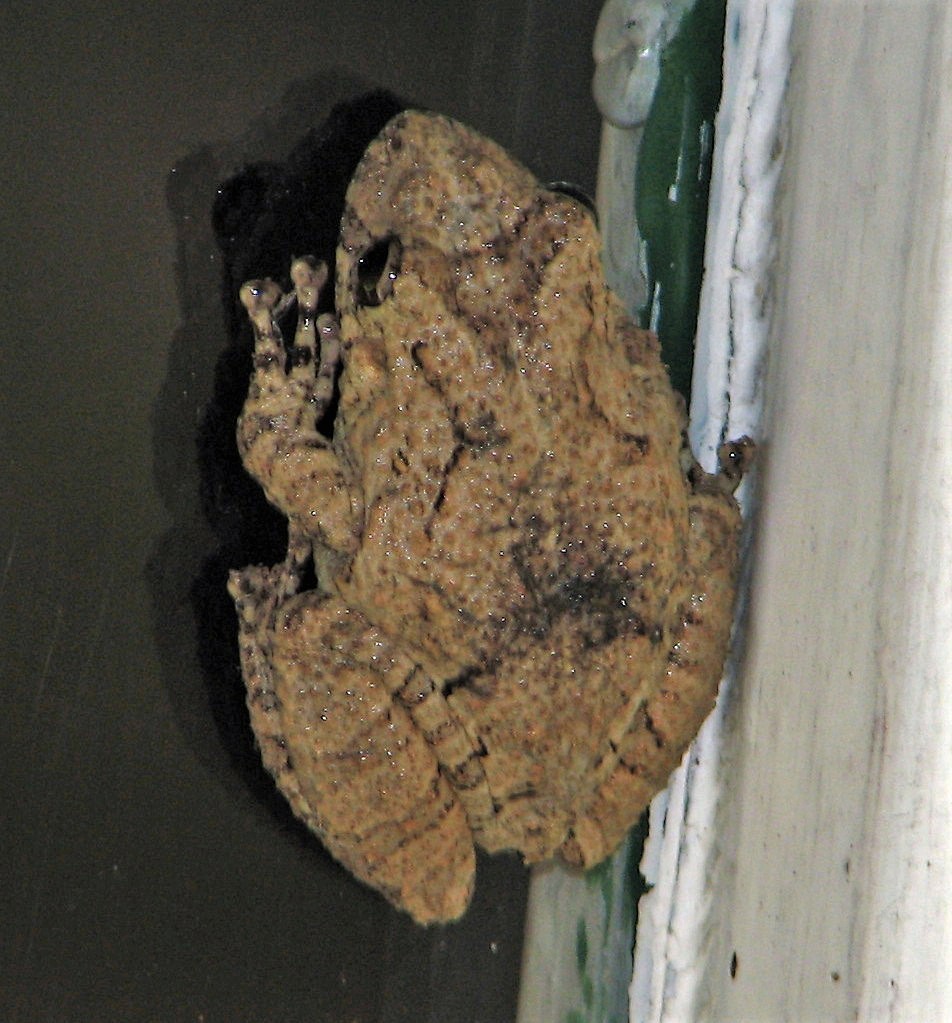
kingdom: Animalia
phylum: Chordata
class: Amphibia
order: Anura
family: Hylidae
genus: Scinax
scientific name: Scinax acuminatus
